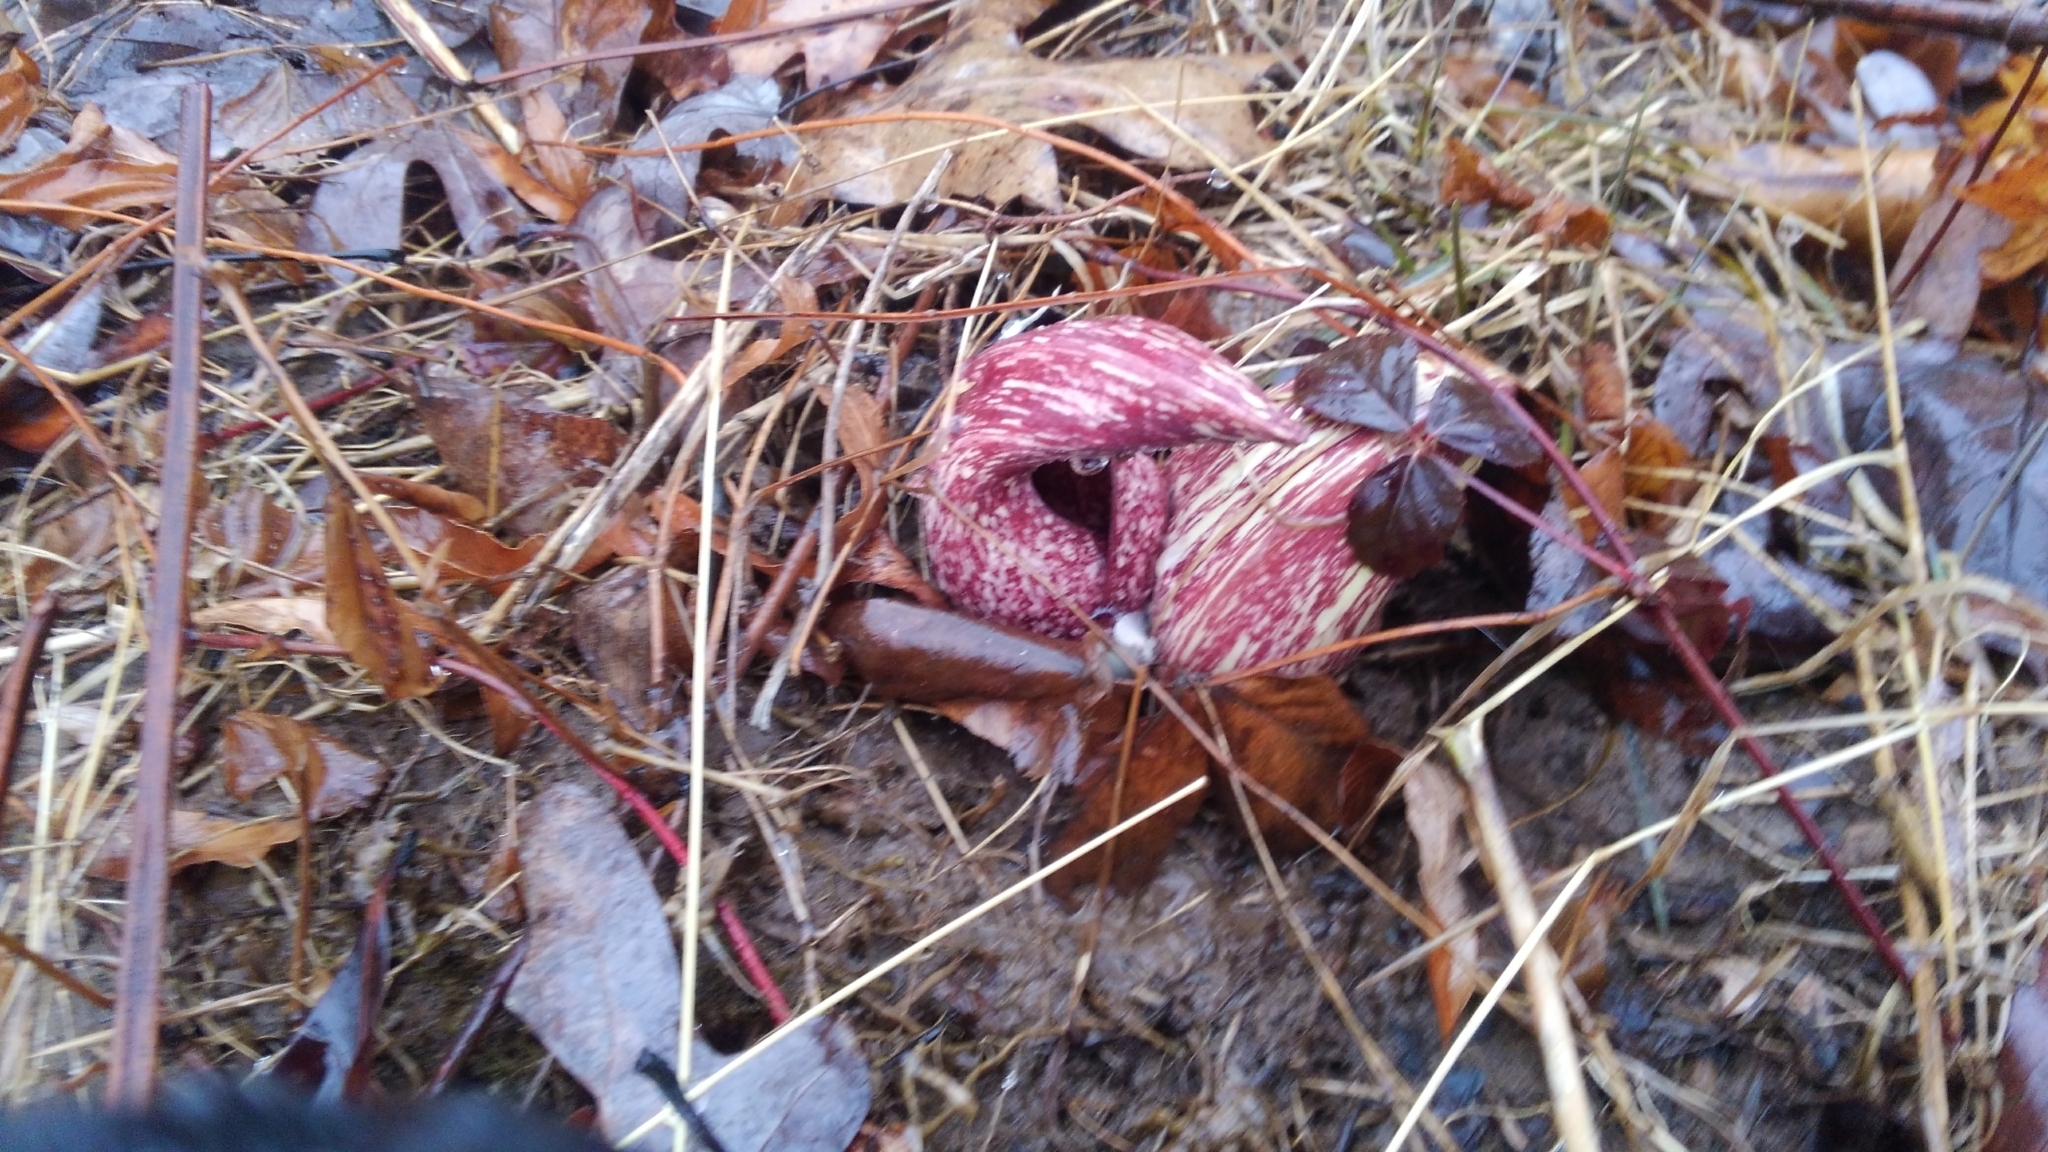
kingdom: Plantae
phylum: Tracheophyta
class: Liliopsida
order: Alismatales
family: Araceae
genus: Symplocarpus
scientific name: Symplocarpus foetidus
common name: Eastern skunk cabbage
